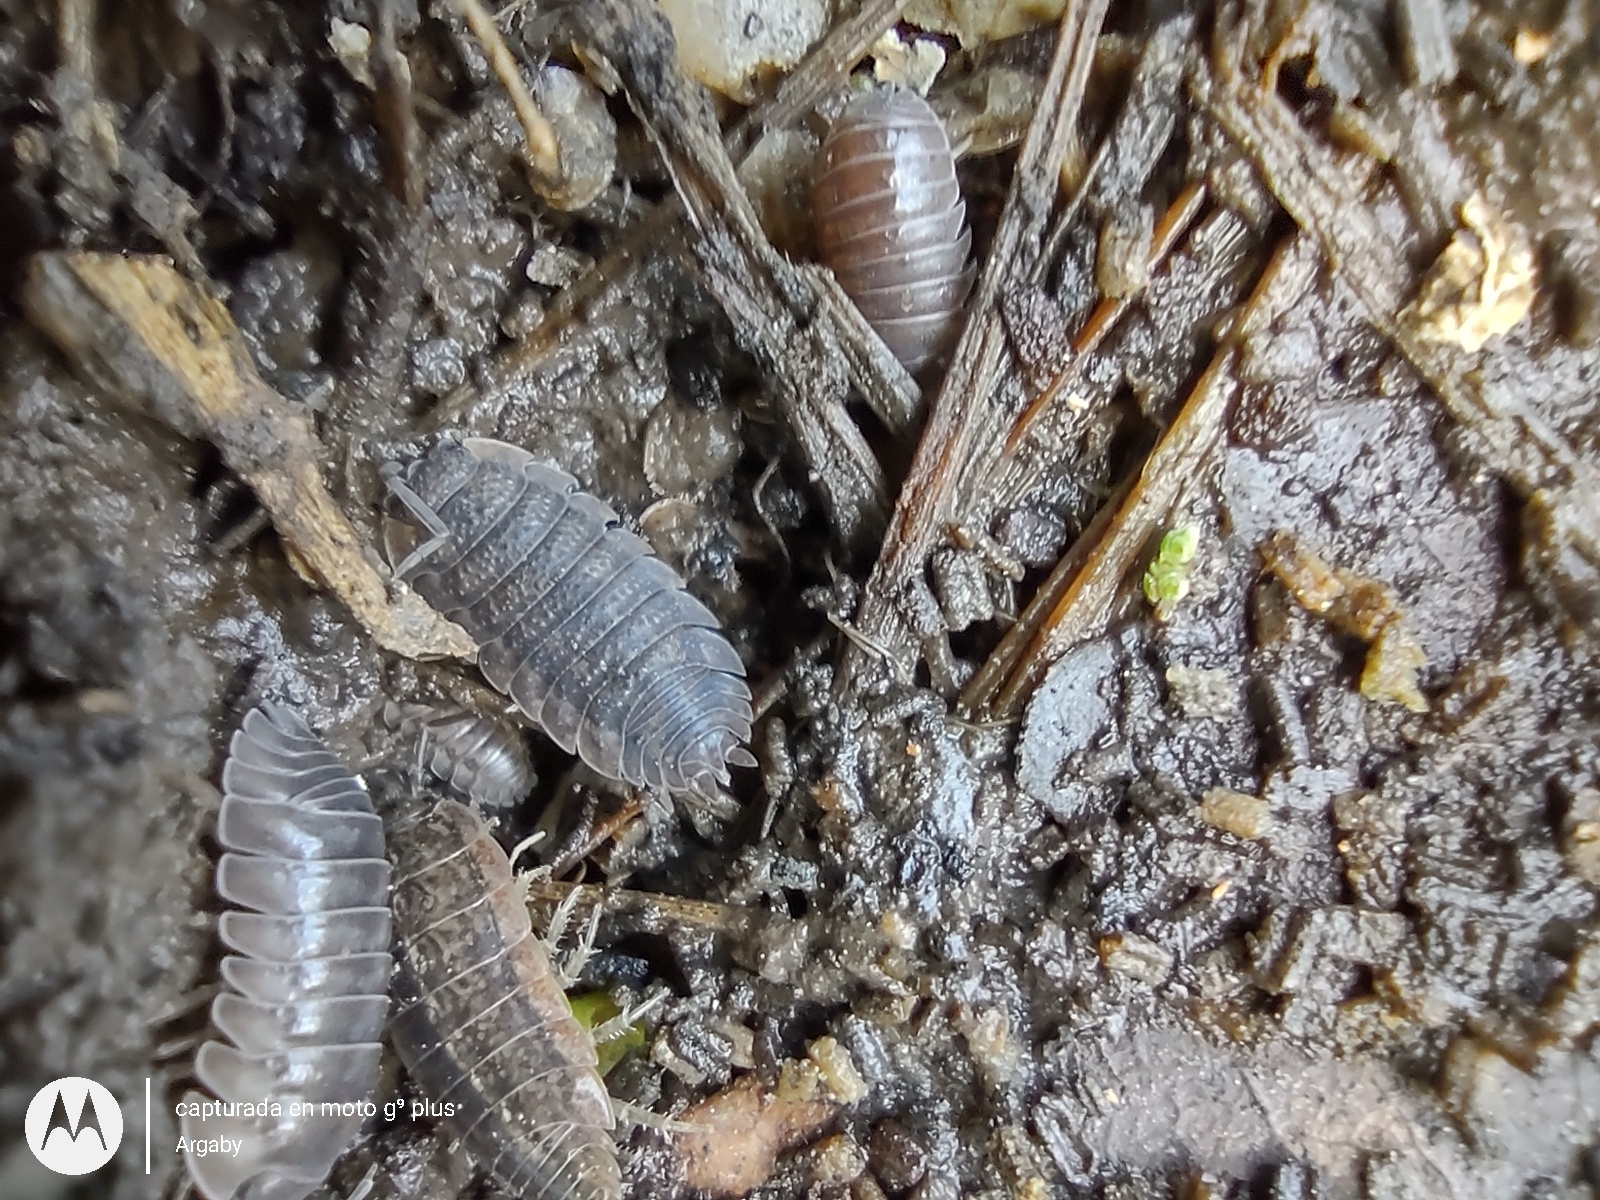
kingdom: Animalia
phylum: Arthropoda
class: Malacostraca
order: Isopoda
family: Porcellionidae
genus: Porcellio
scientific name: Porcellio scaber
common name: Common rough woodlouse
